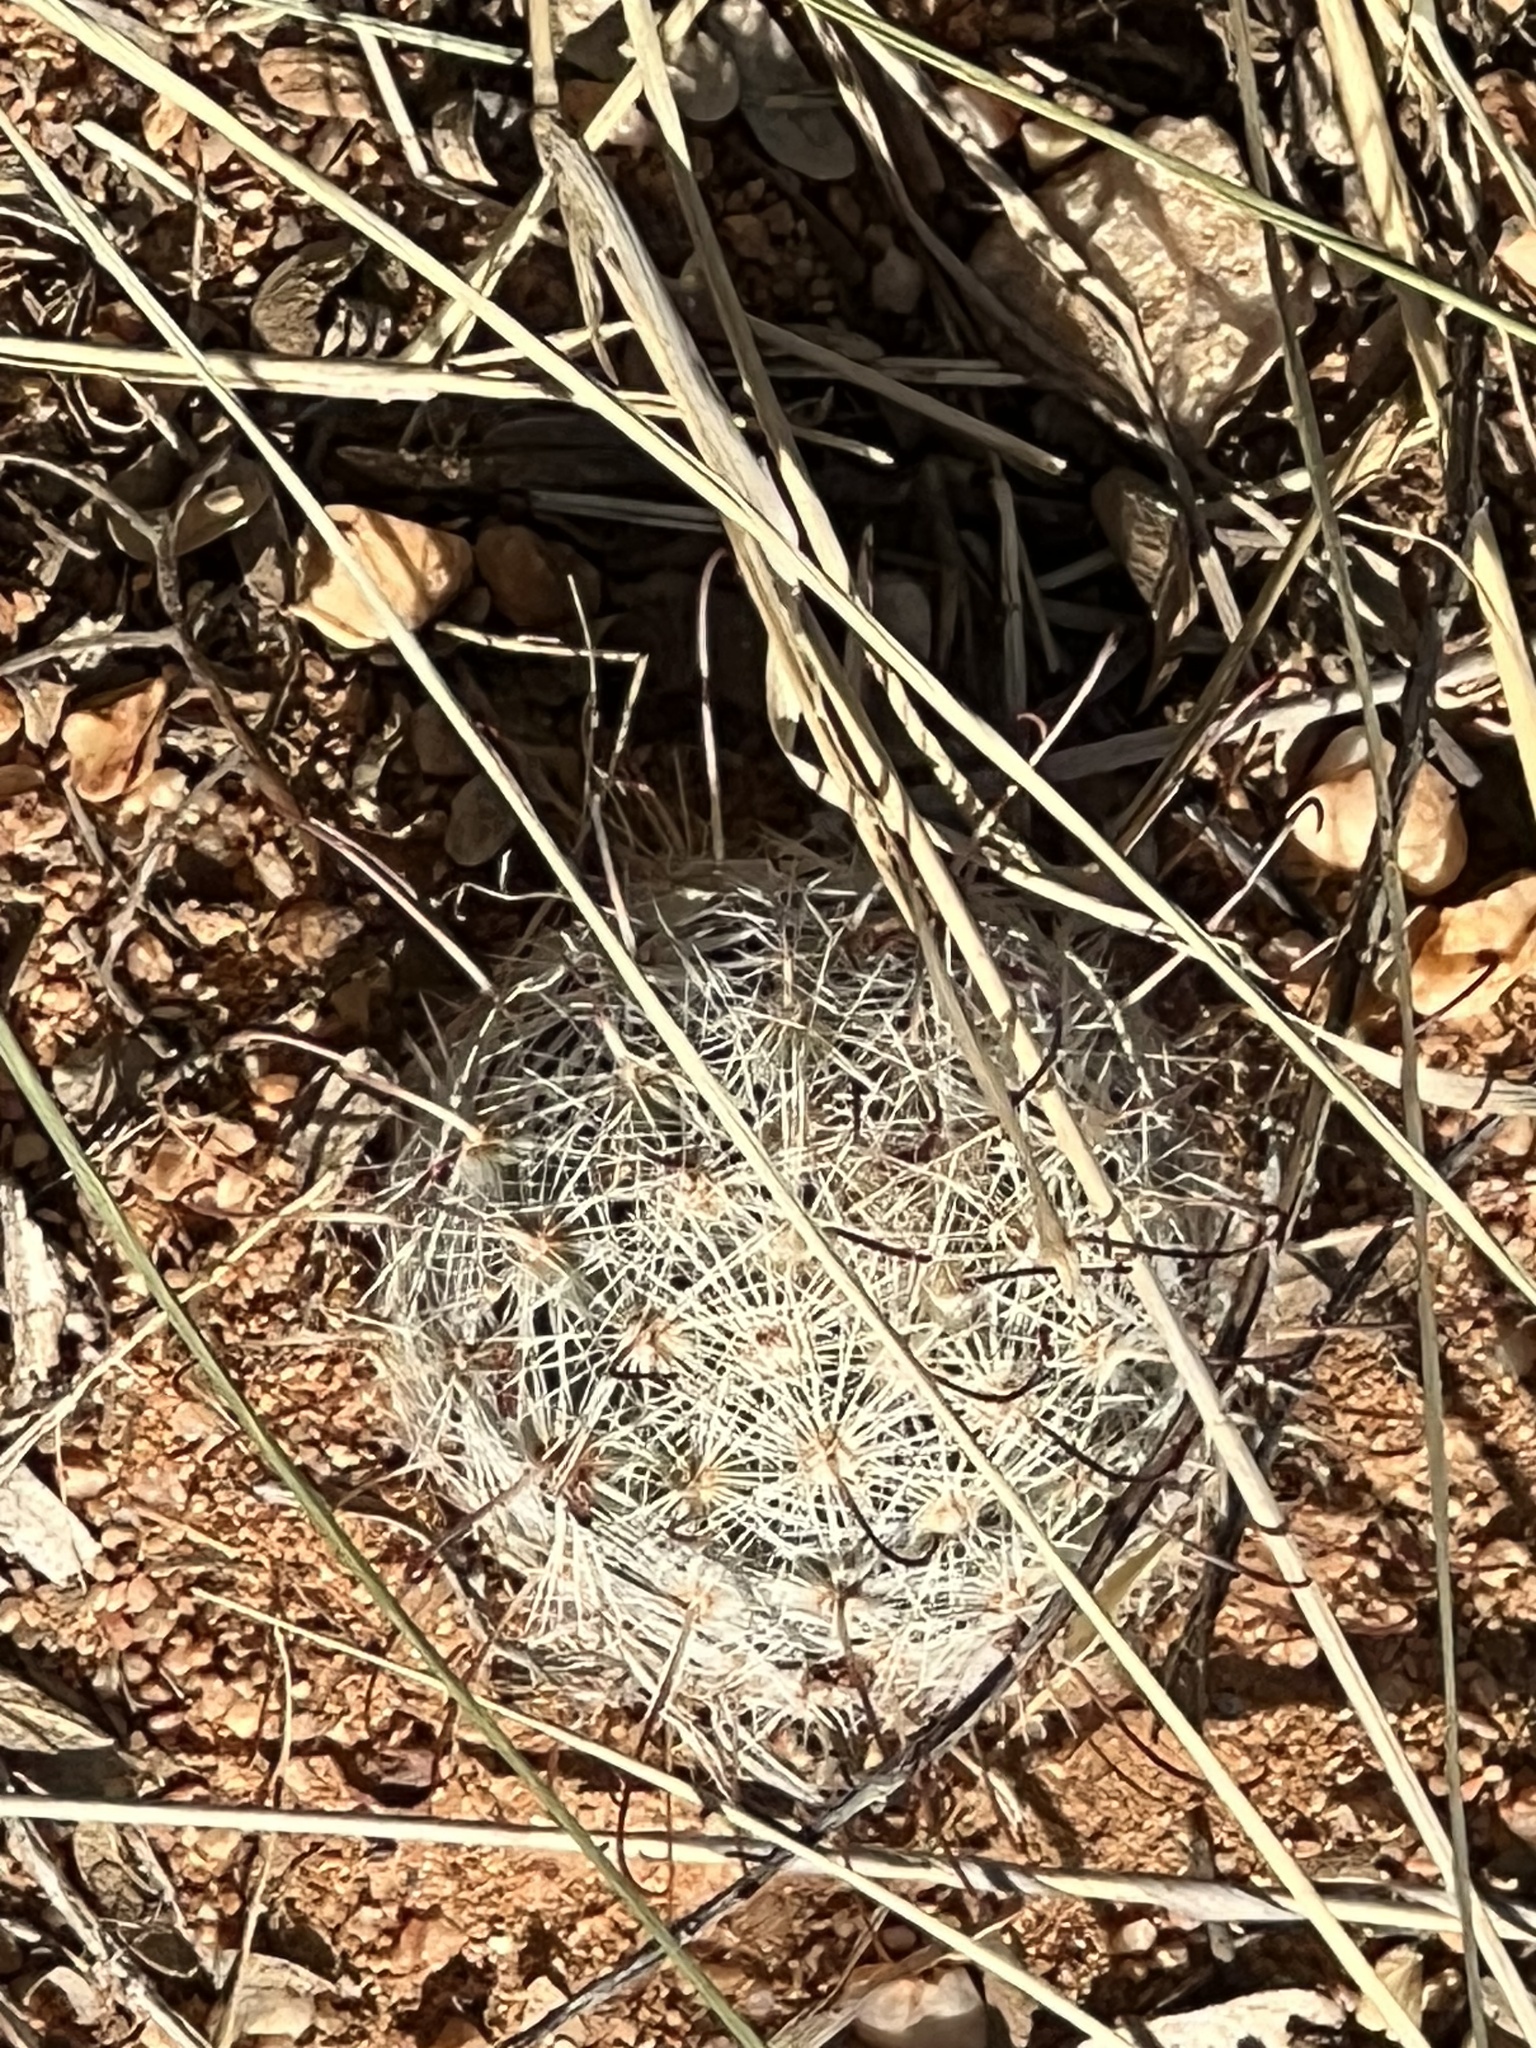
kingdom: Plantae
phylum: Tracheophyta
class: Magnoliopsida
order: Caryophyllales
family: Cactaceae
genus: Cochemiea
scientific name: Cochemiea grahamii
